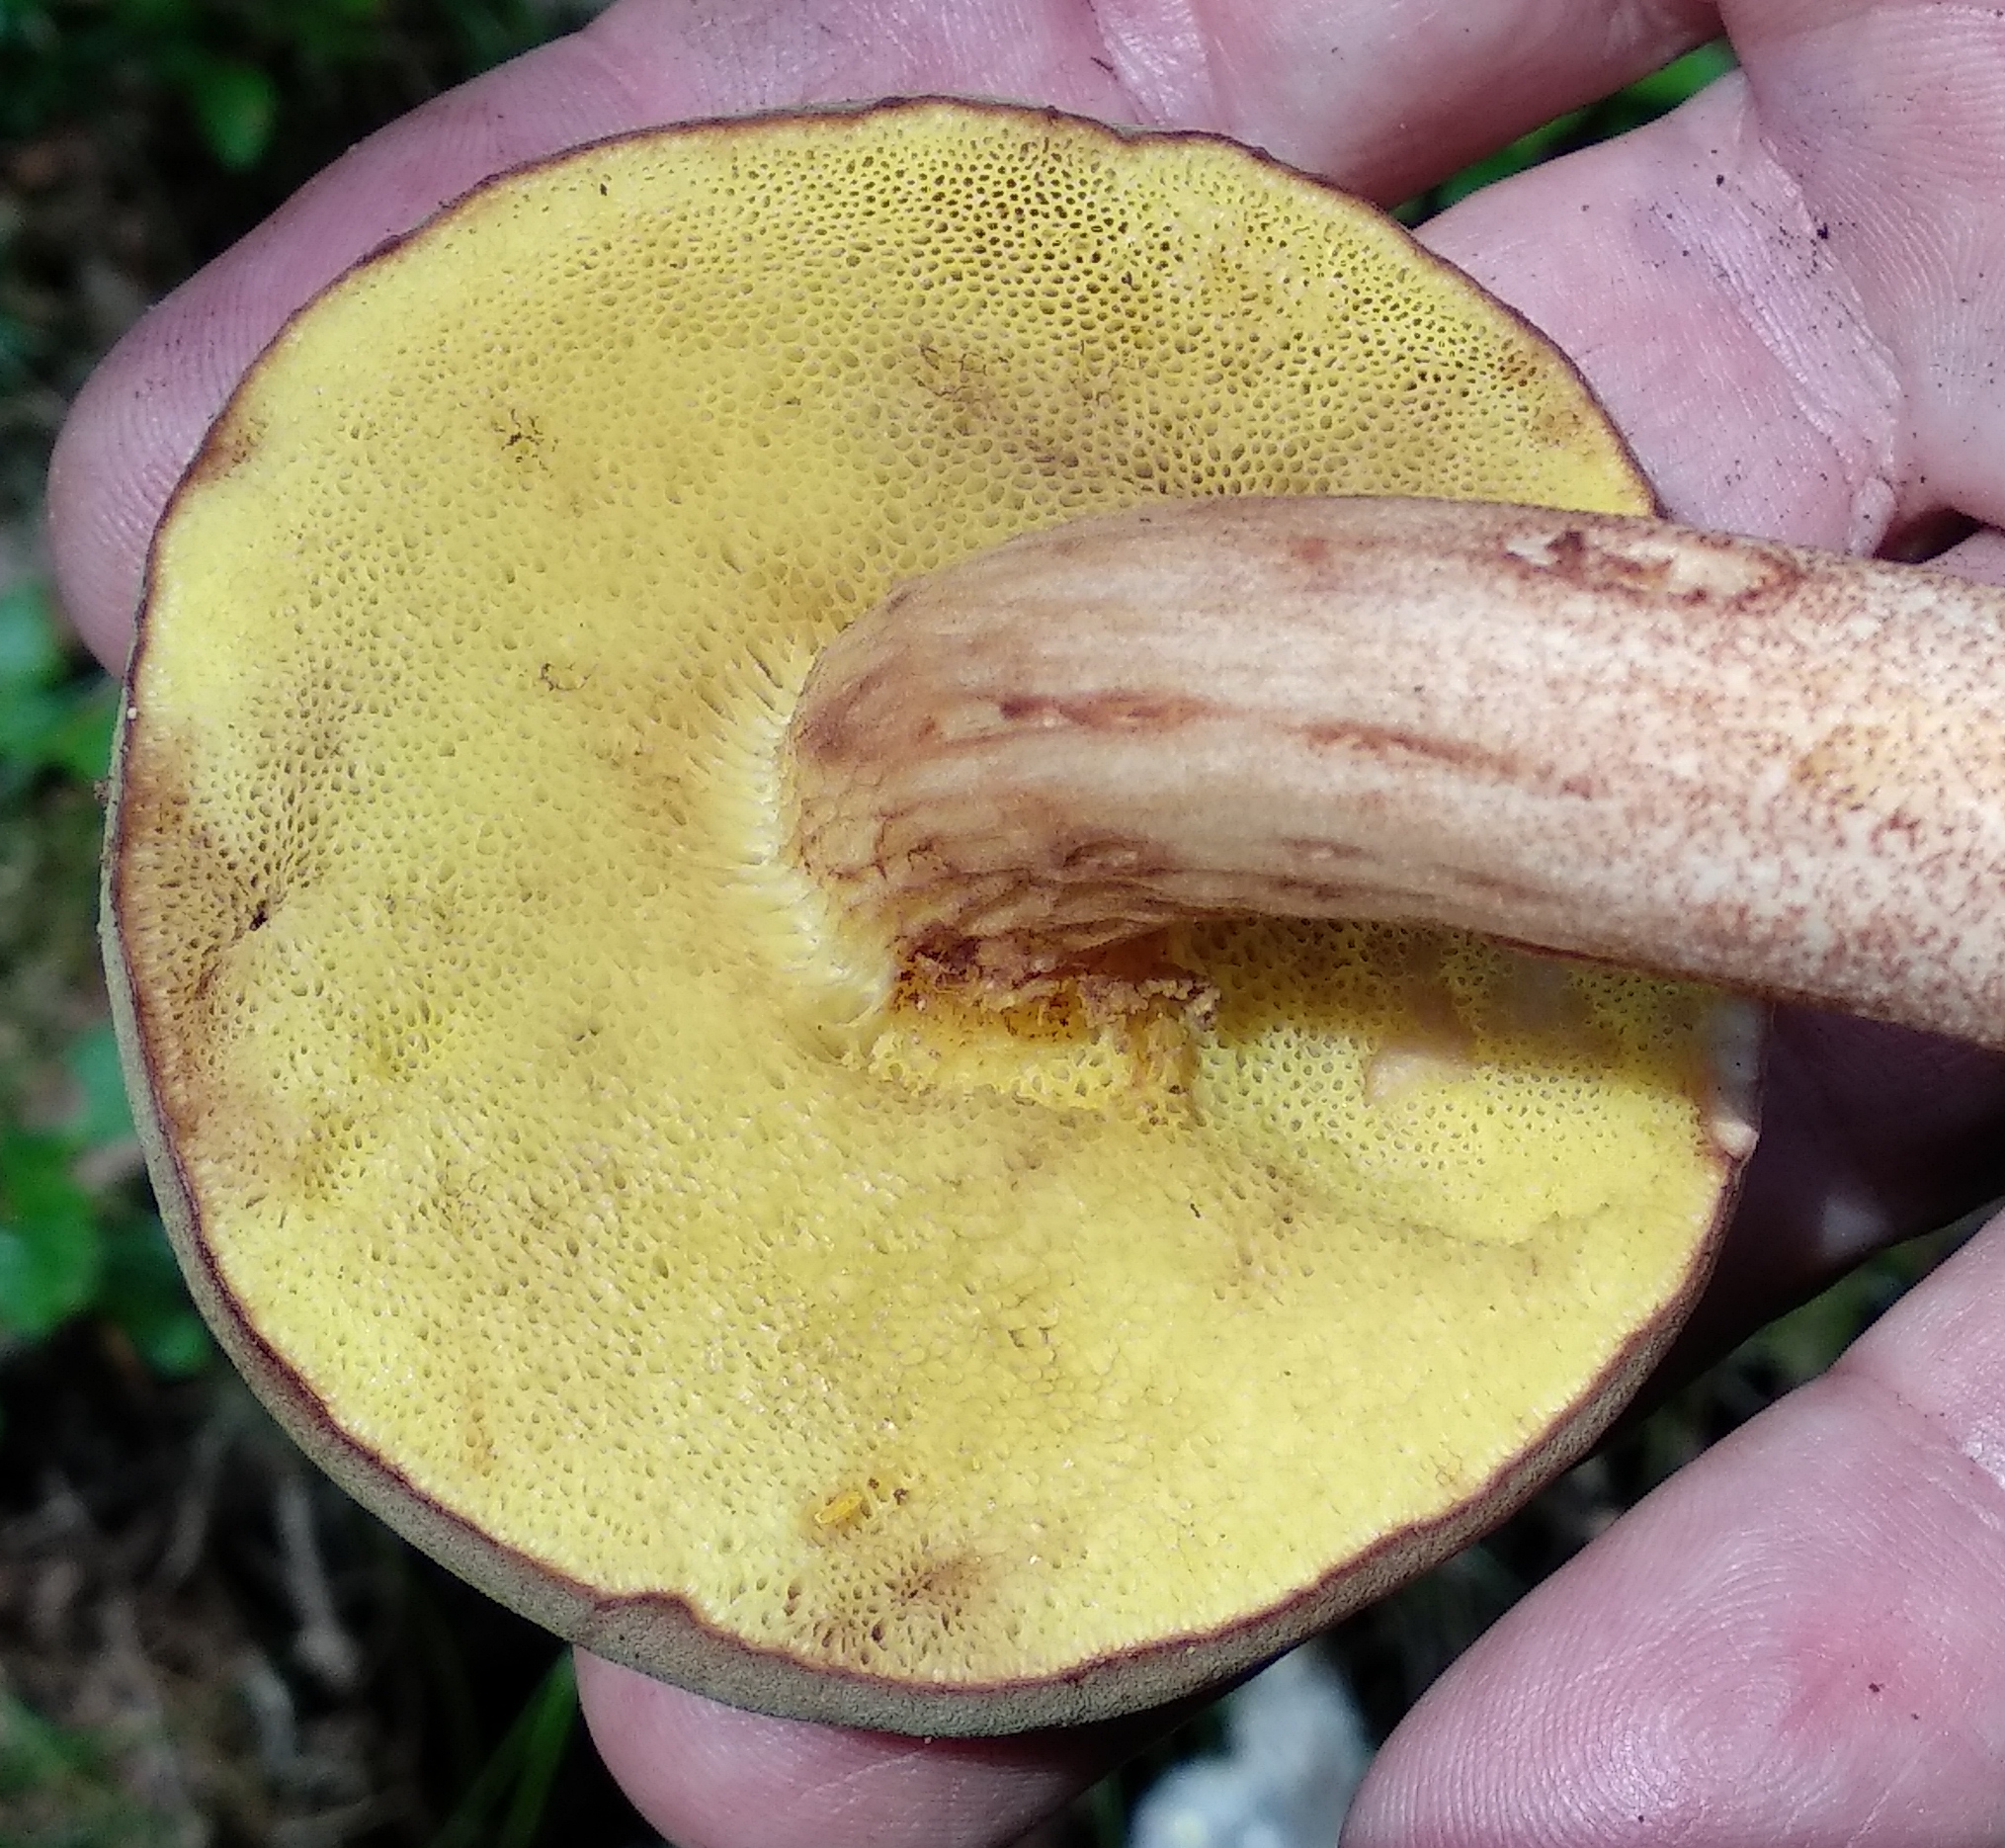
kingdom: Fungi
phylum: Basidiomycota
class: Agaricomycetes
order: Boletales
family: Boletaceae
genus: Xerocomus
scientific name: Xerocomus ferrugineus
